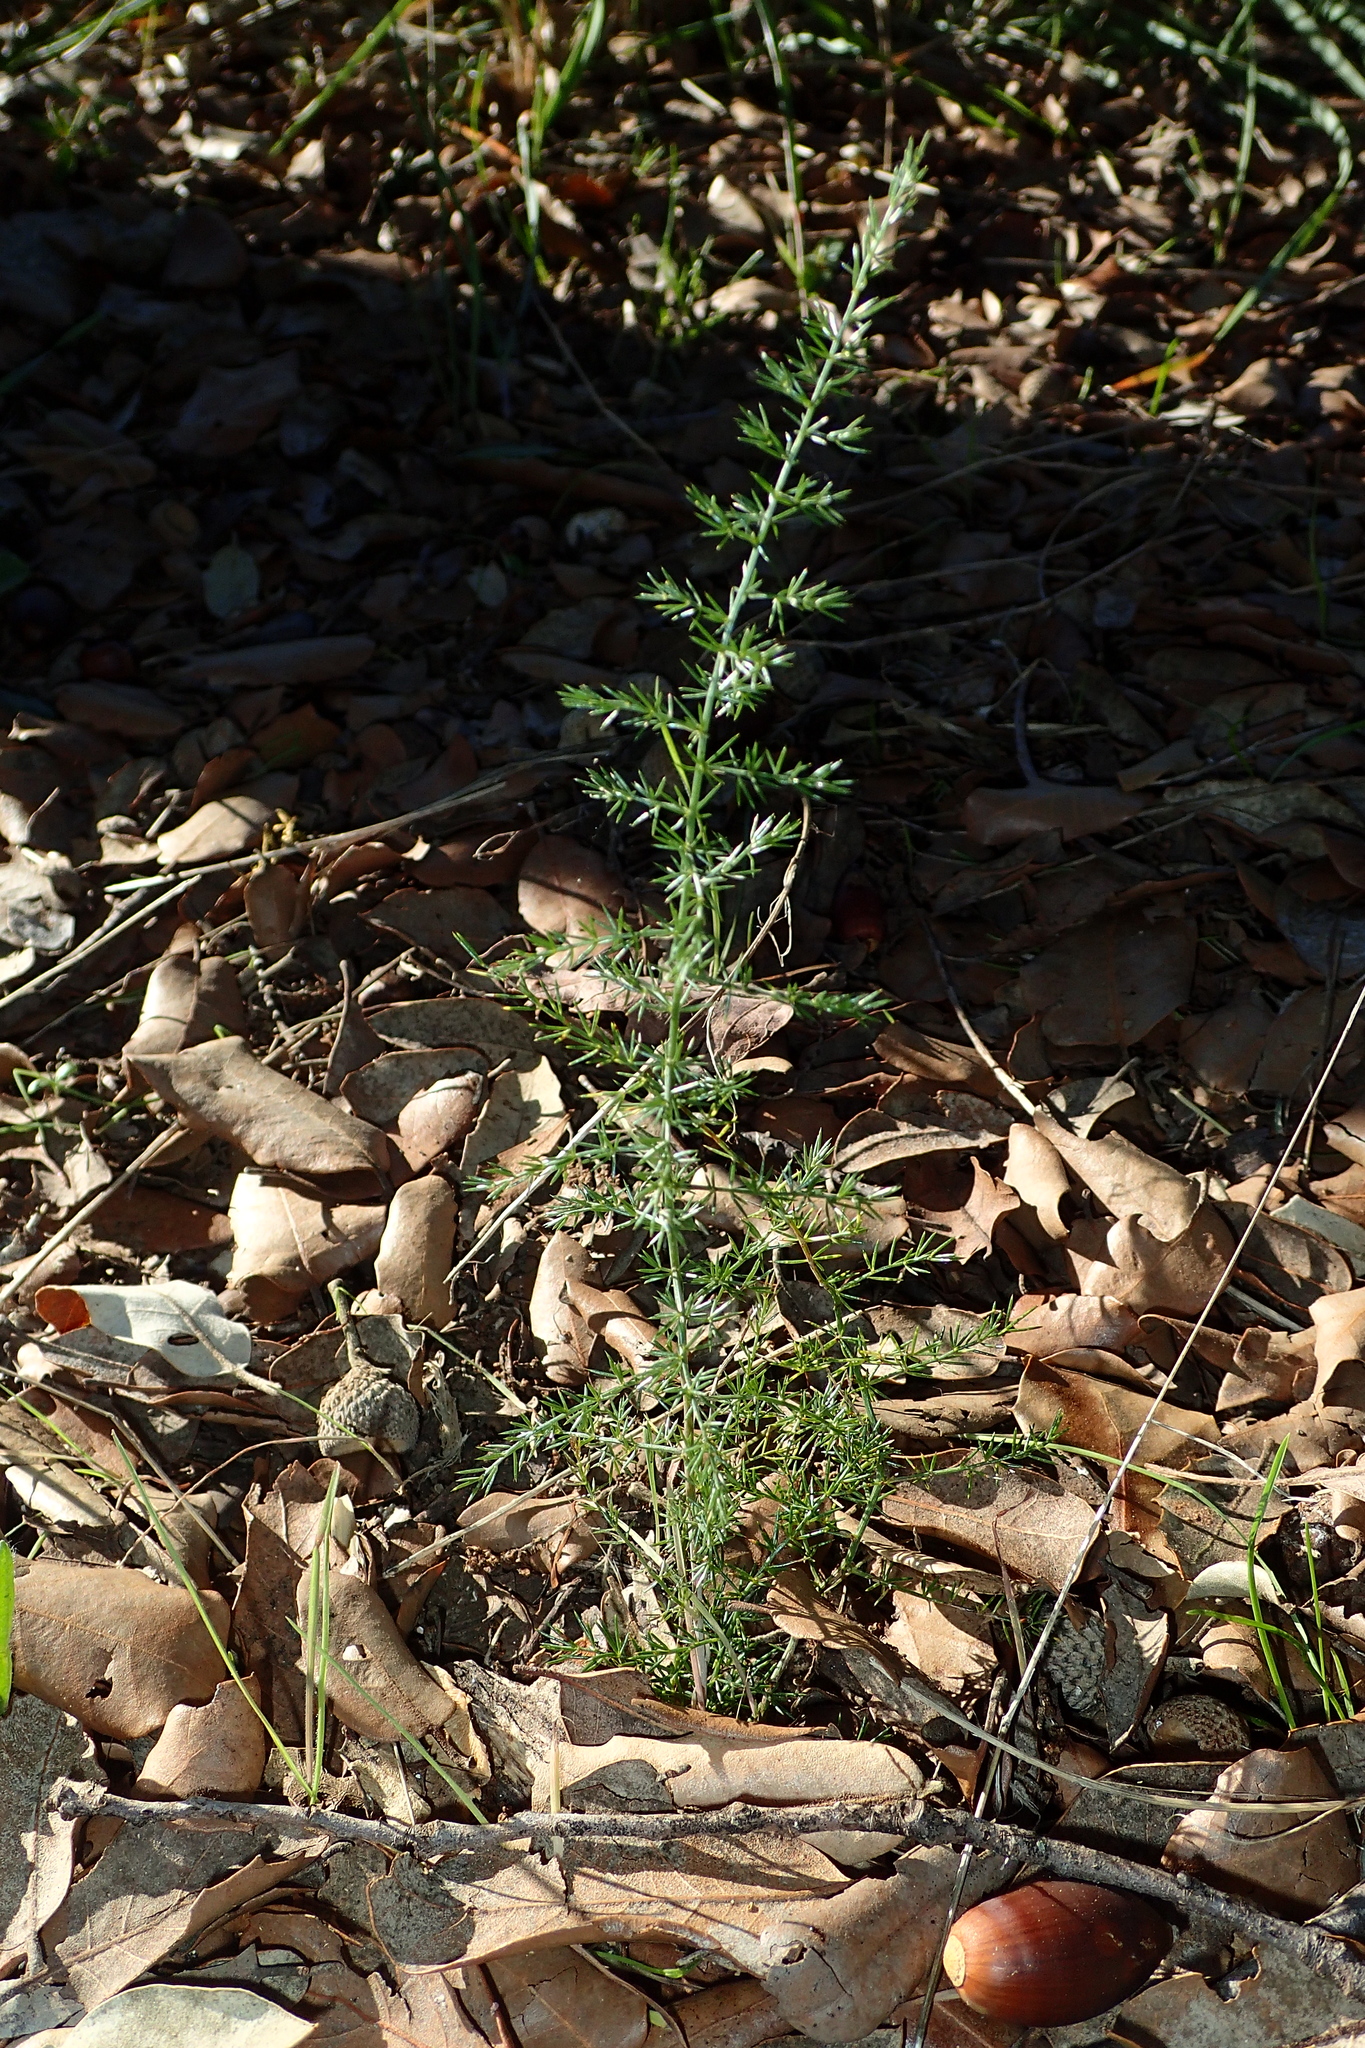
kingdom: Plantae
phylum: Tracheophyta
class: Liliopsida
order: Asparagales
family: Asparagaceae
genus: Asparagus
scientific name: Asparagus acutifolius
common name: Wild asparagus
